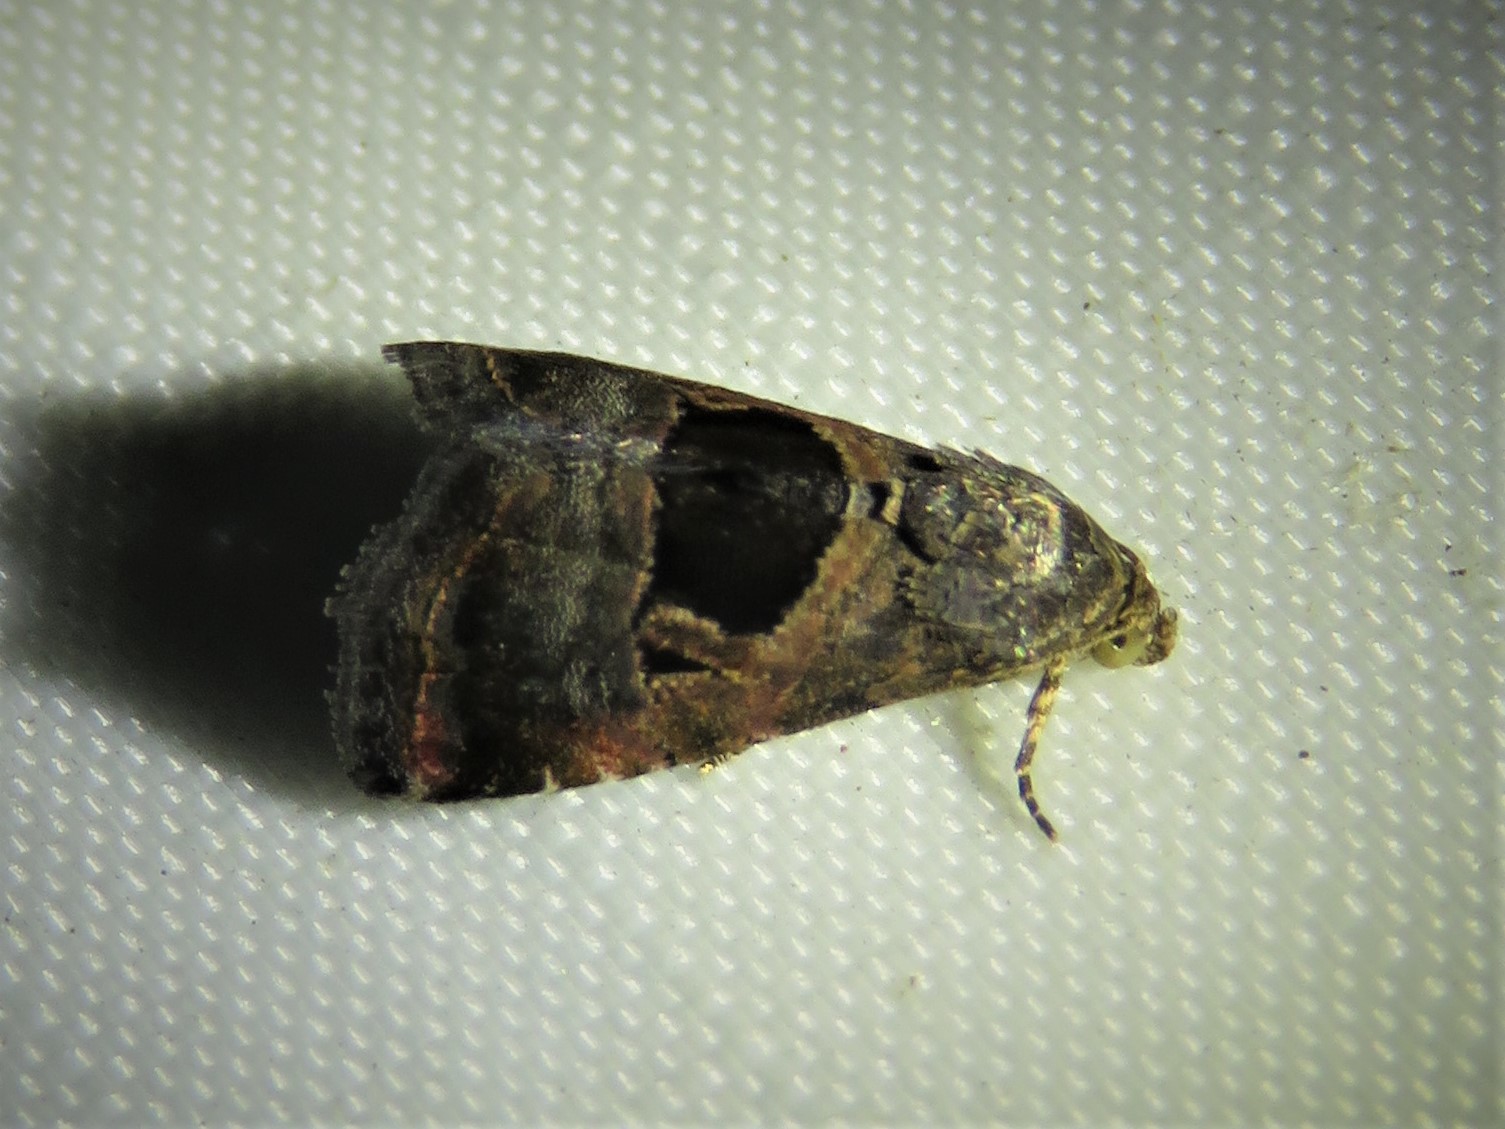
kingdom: Animalia
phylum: Arthropoda
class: Insecta
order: Lepidoptera
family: Noctuidae
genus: Tripudia
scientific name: Tripudia quadrifera
